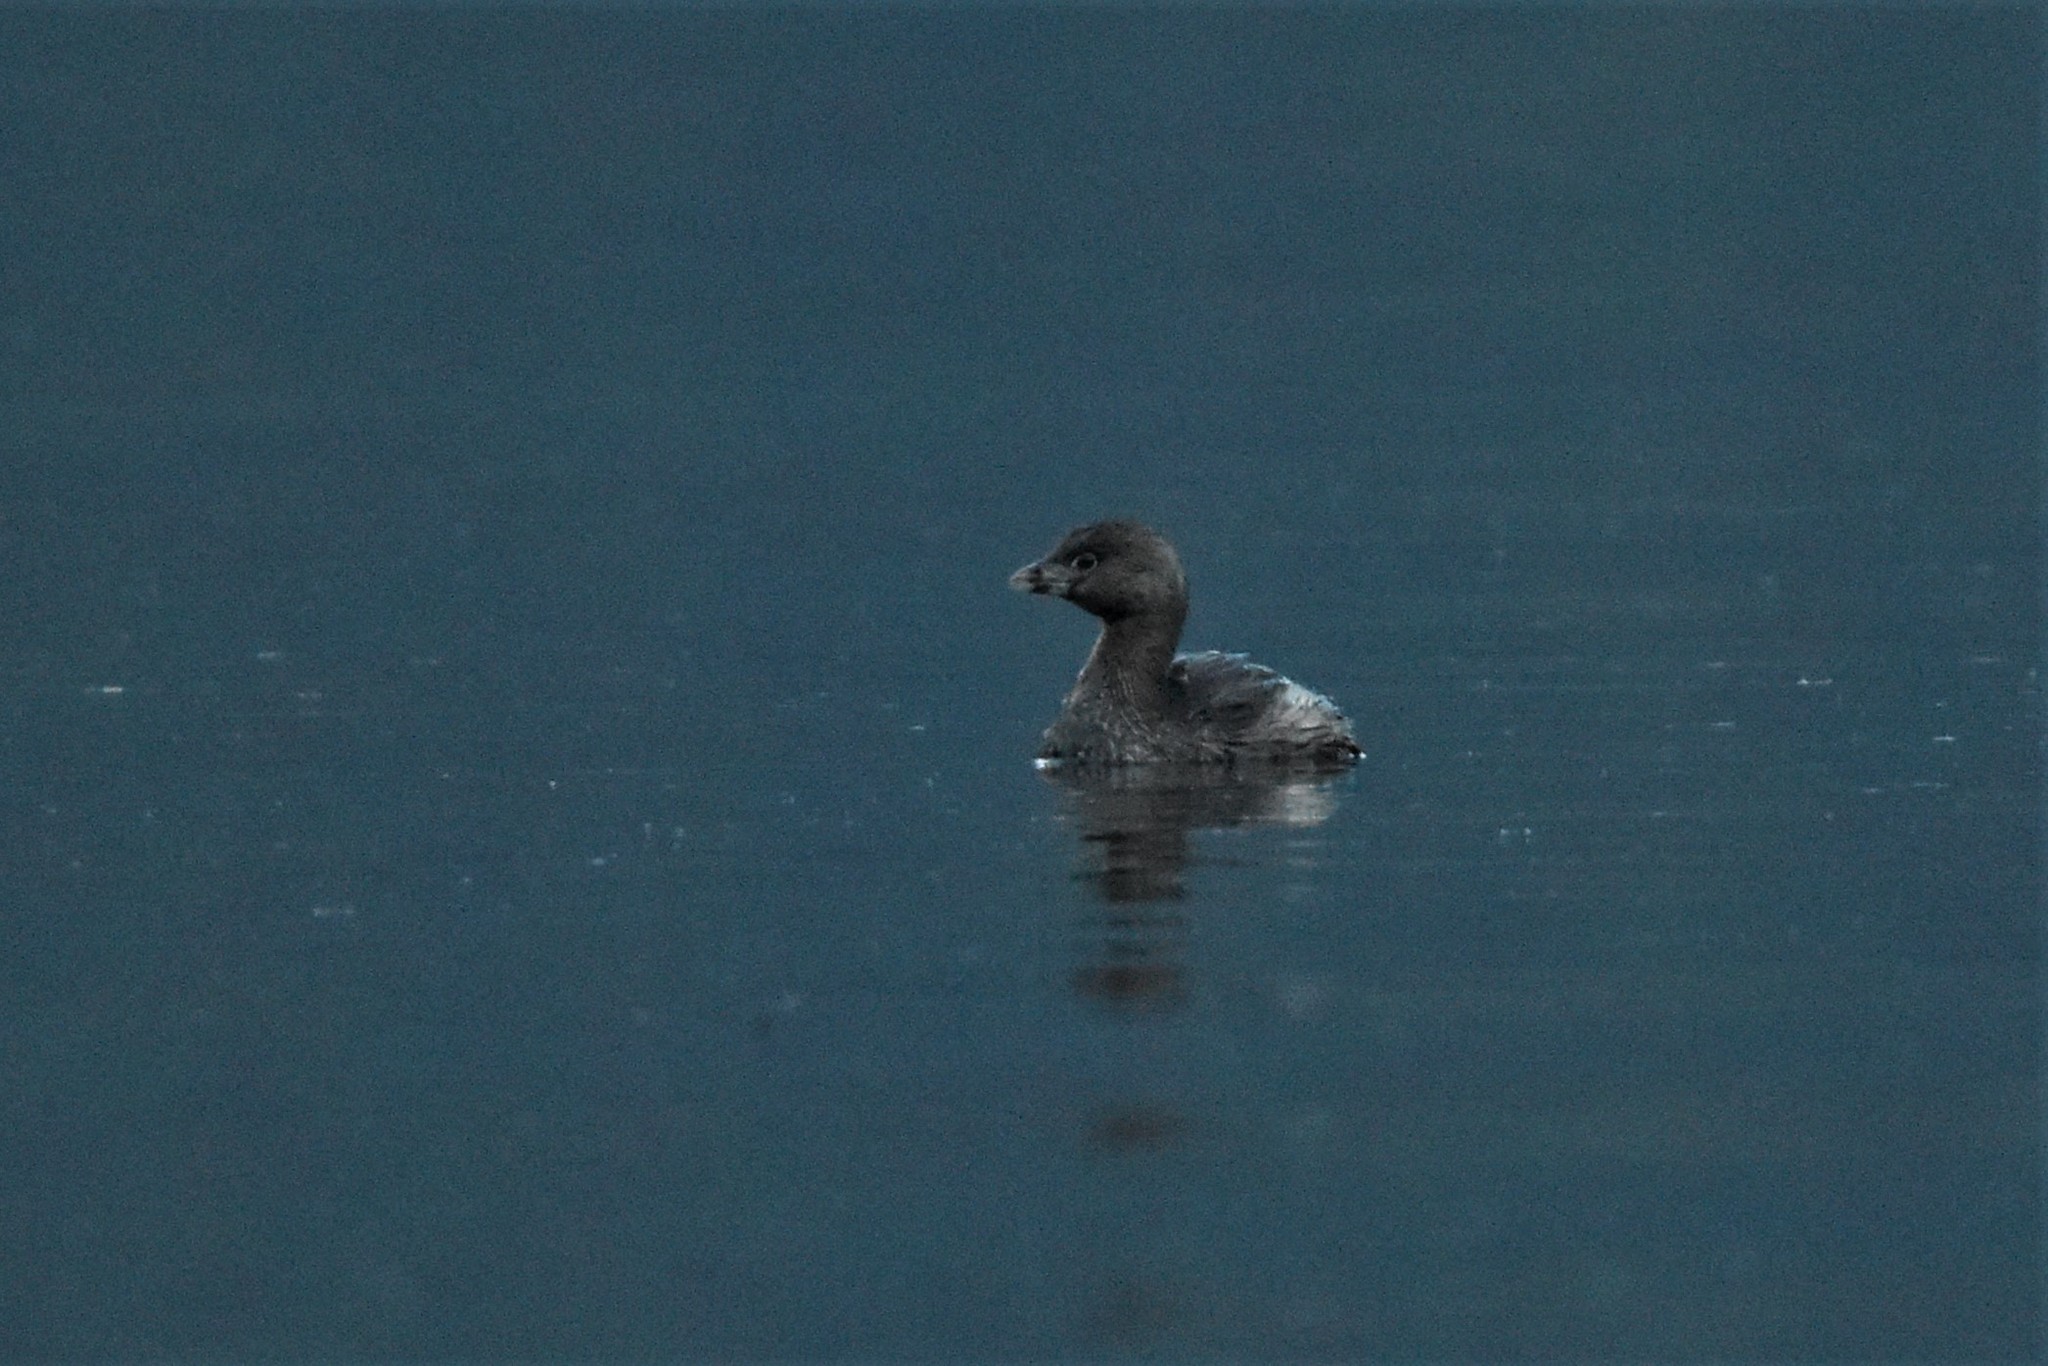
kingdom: Animalia
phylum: Chordata
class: Aves
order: Podicipediformes
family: Podicipedidae
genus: Podilymbus
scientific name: Podilymbus podiceps
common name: Pied-billed grebe
